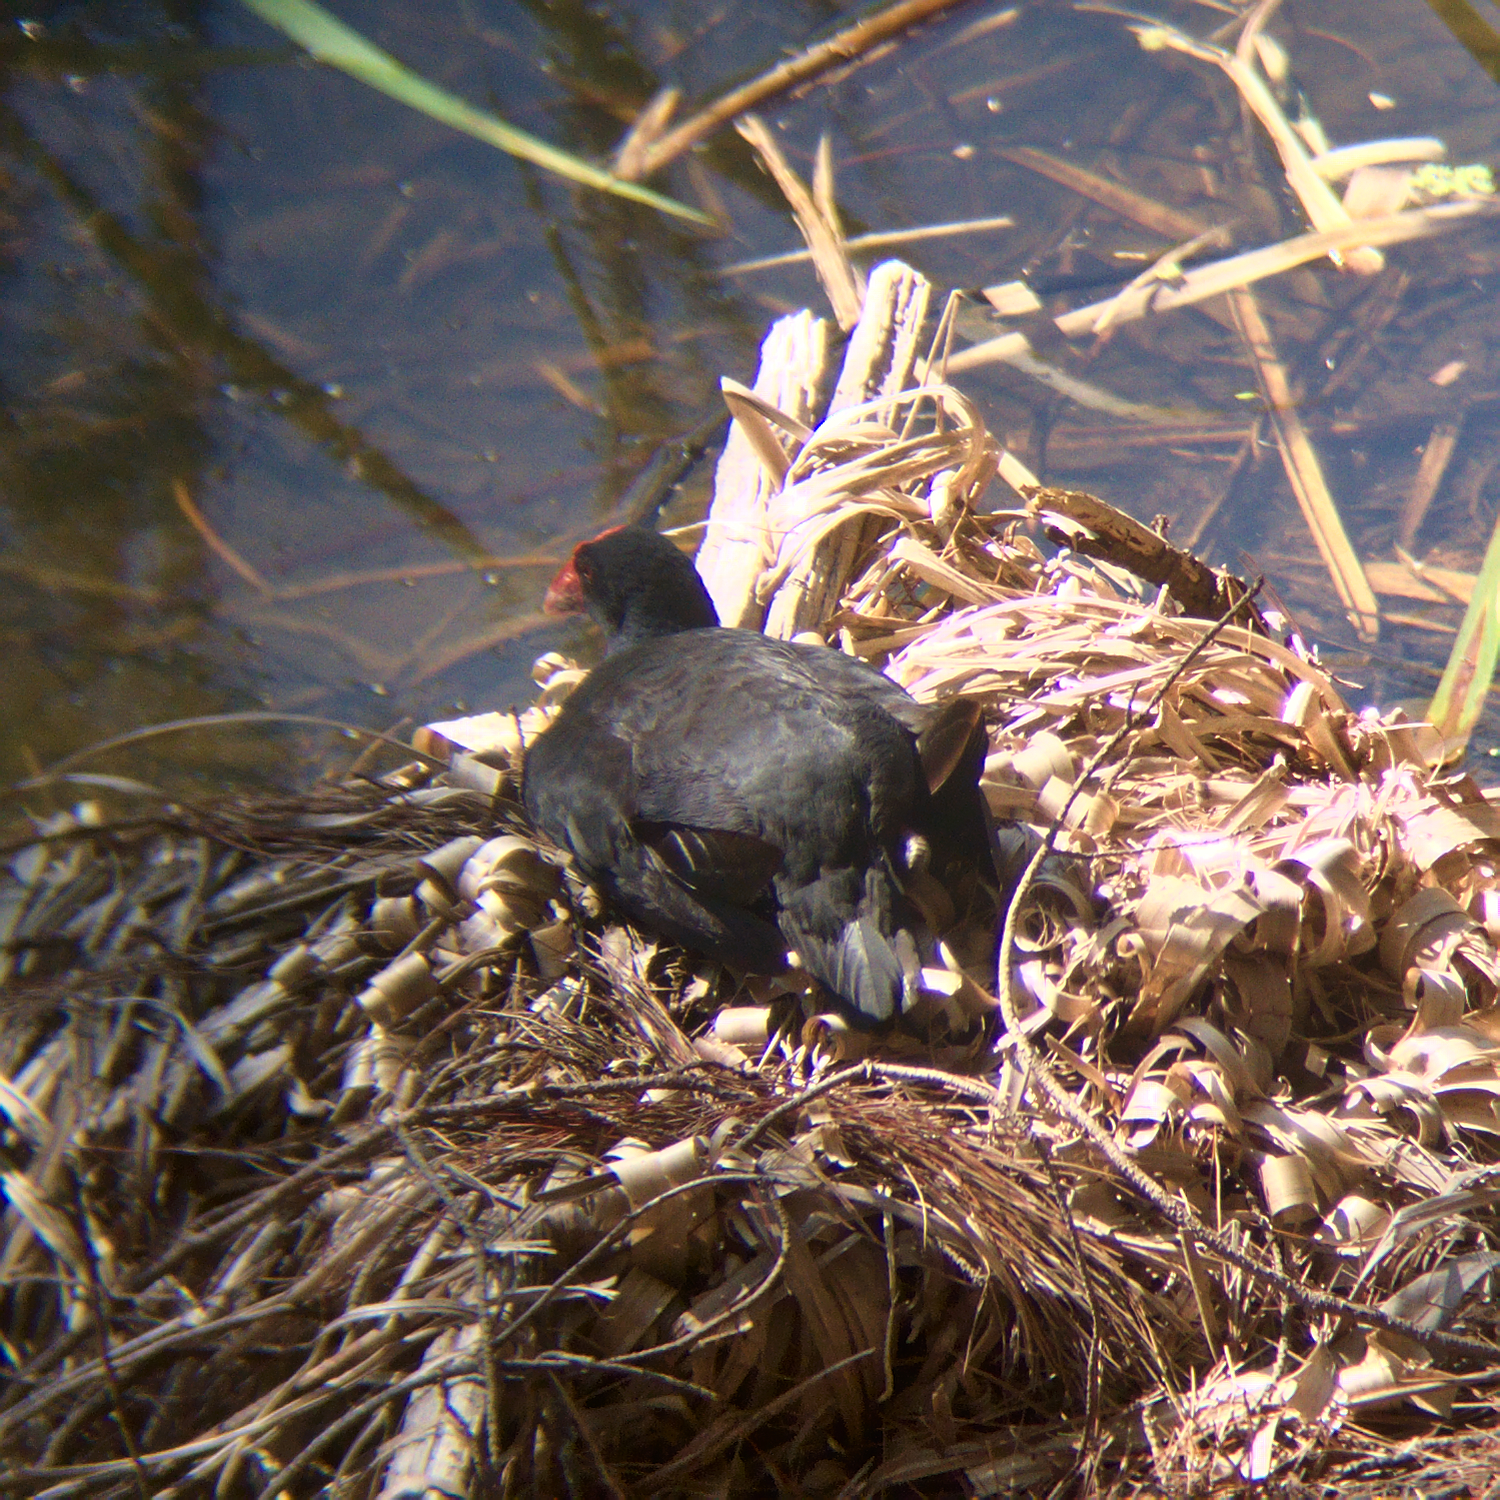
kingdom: Animalia
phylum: Chordata
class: Aves
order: Gruiformes
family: Rallidae
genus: Porphyrio
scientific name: Porphyrio melanotus
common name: Australasian swamphen
